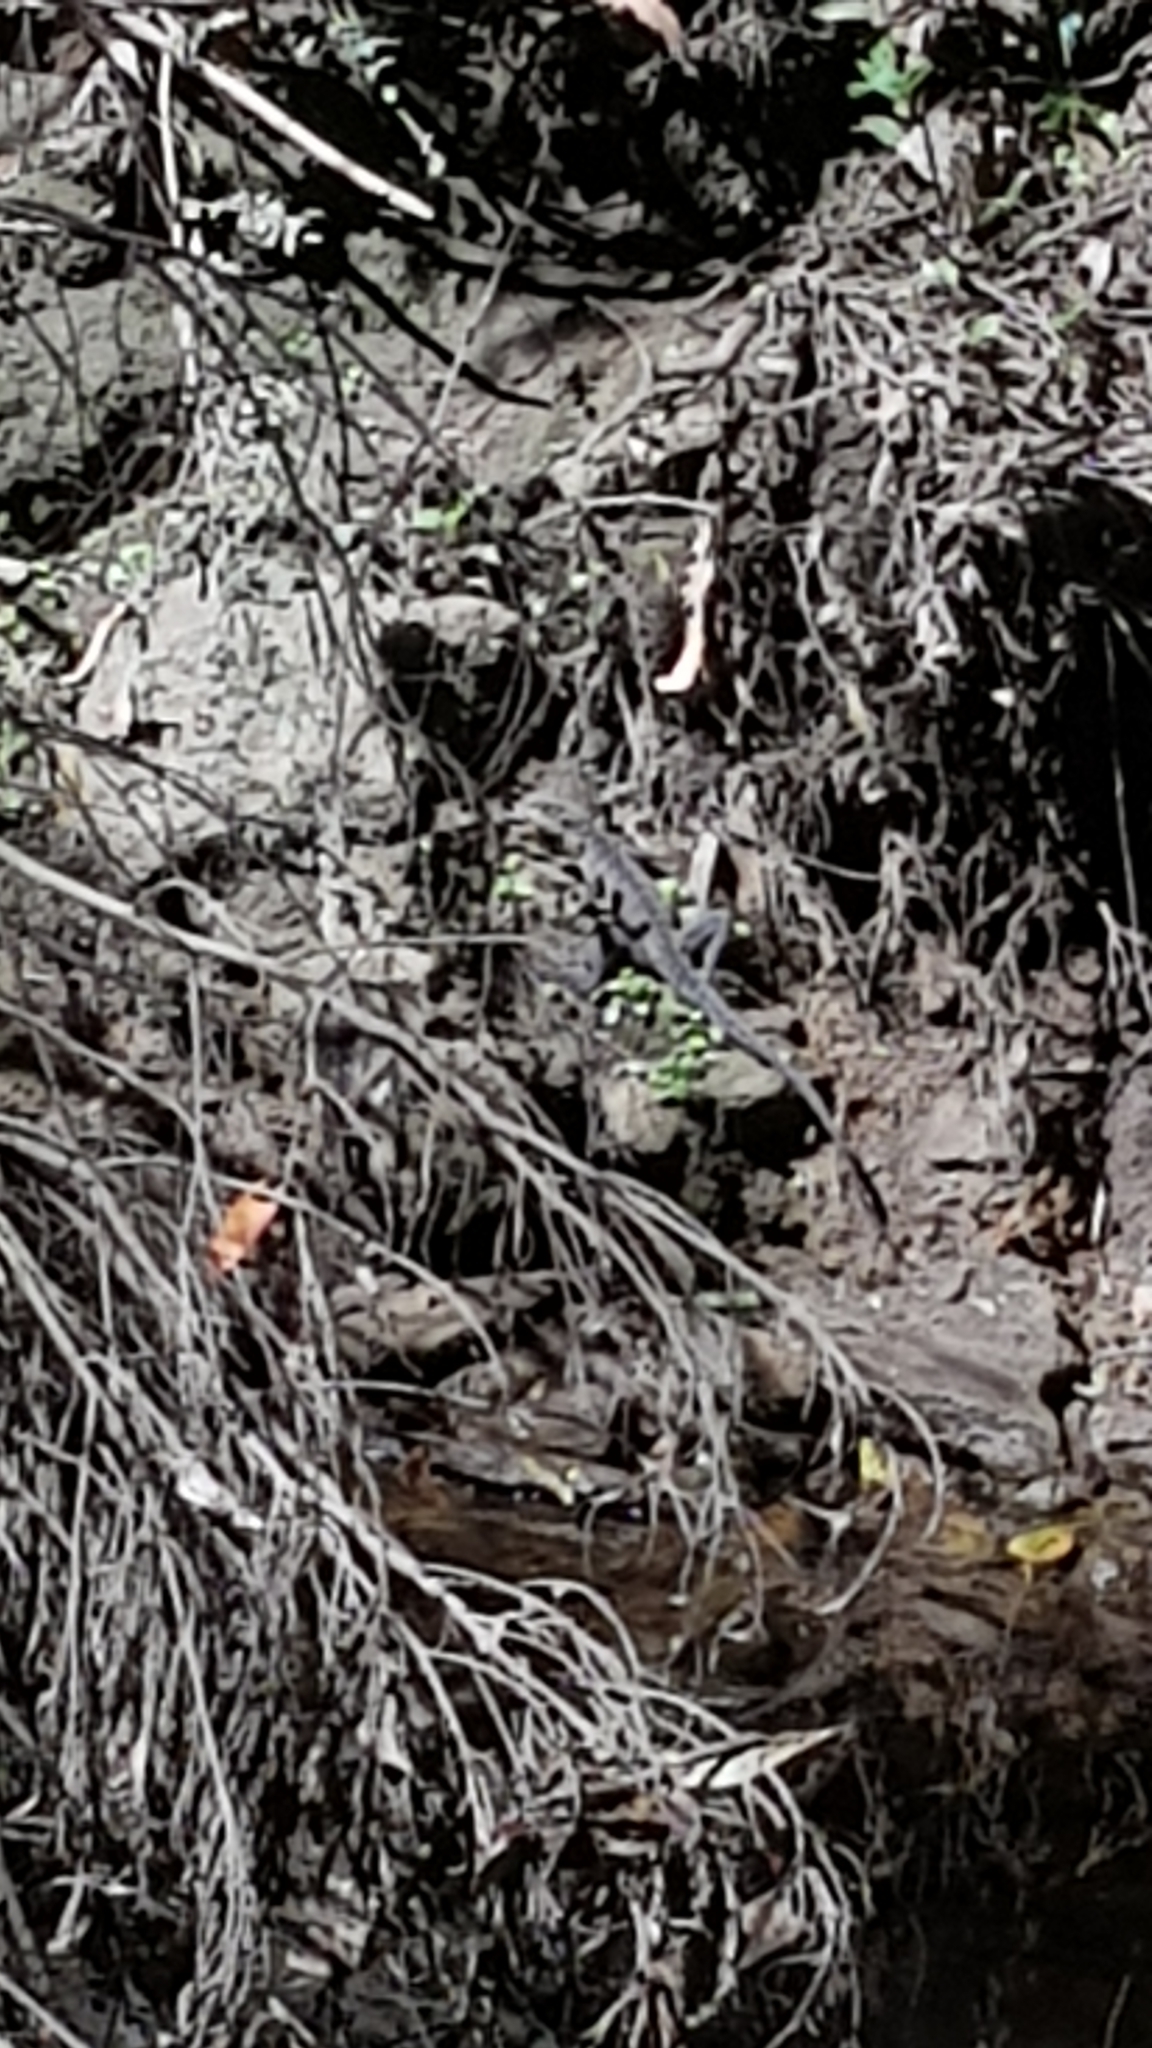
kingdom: Animalia
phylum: Chordata
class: Squamata
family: Agamidae
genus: Intellagama
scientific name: Intellagama lesueurii
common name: Eastern water dragon
